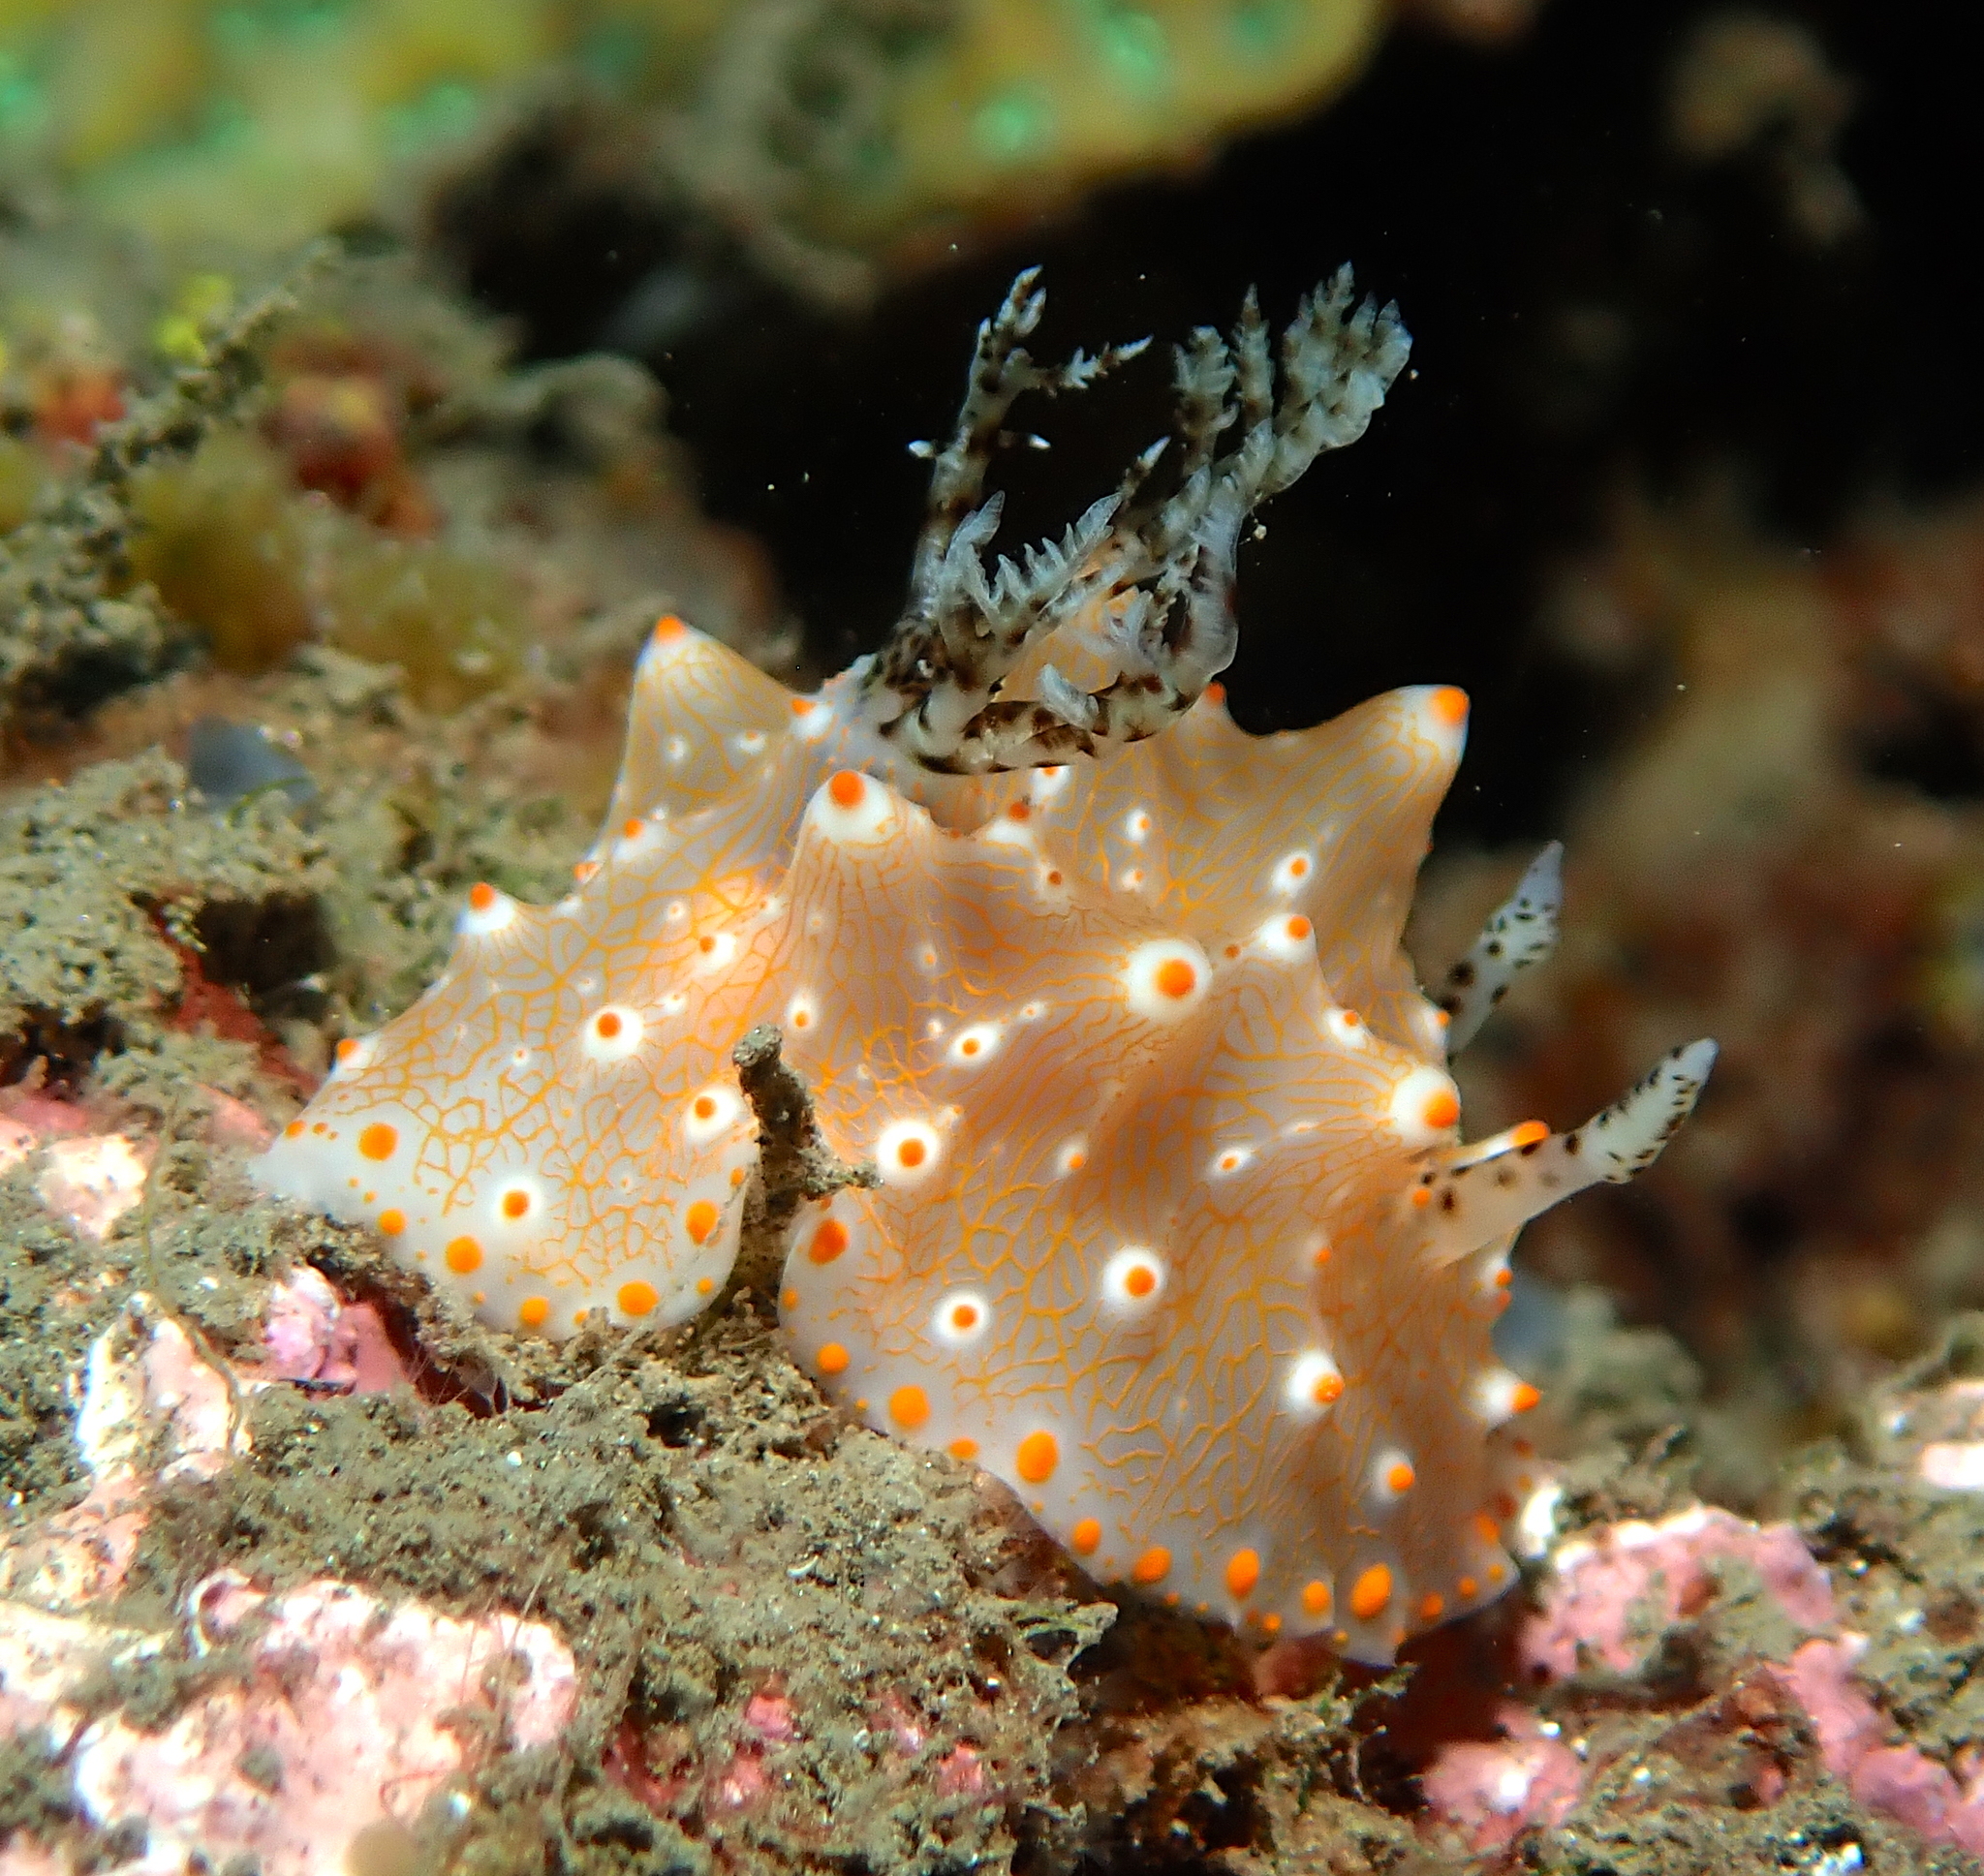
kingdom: Animalia
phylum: Mollusca
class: Gastropoda
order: Nudibranchia
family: Discodorididae
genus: Halgerda
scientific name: Halgerda batangas
